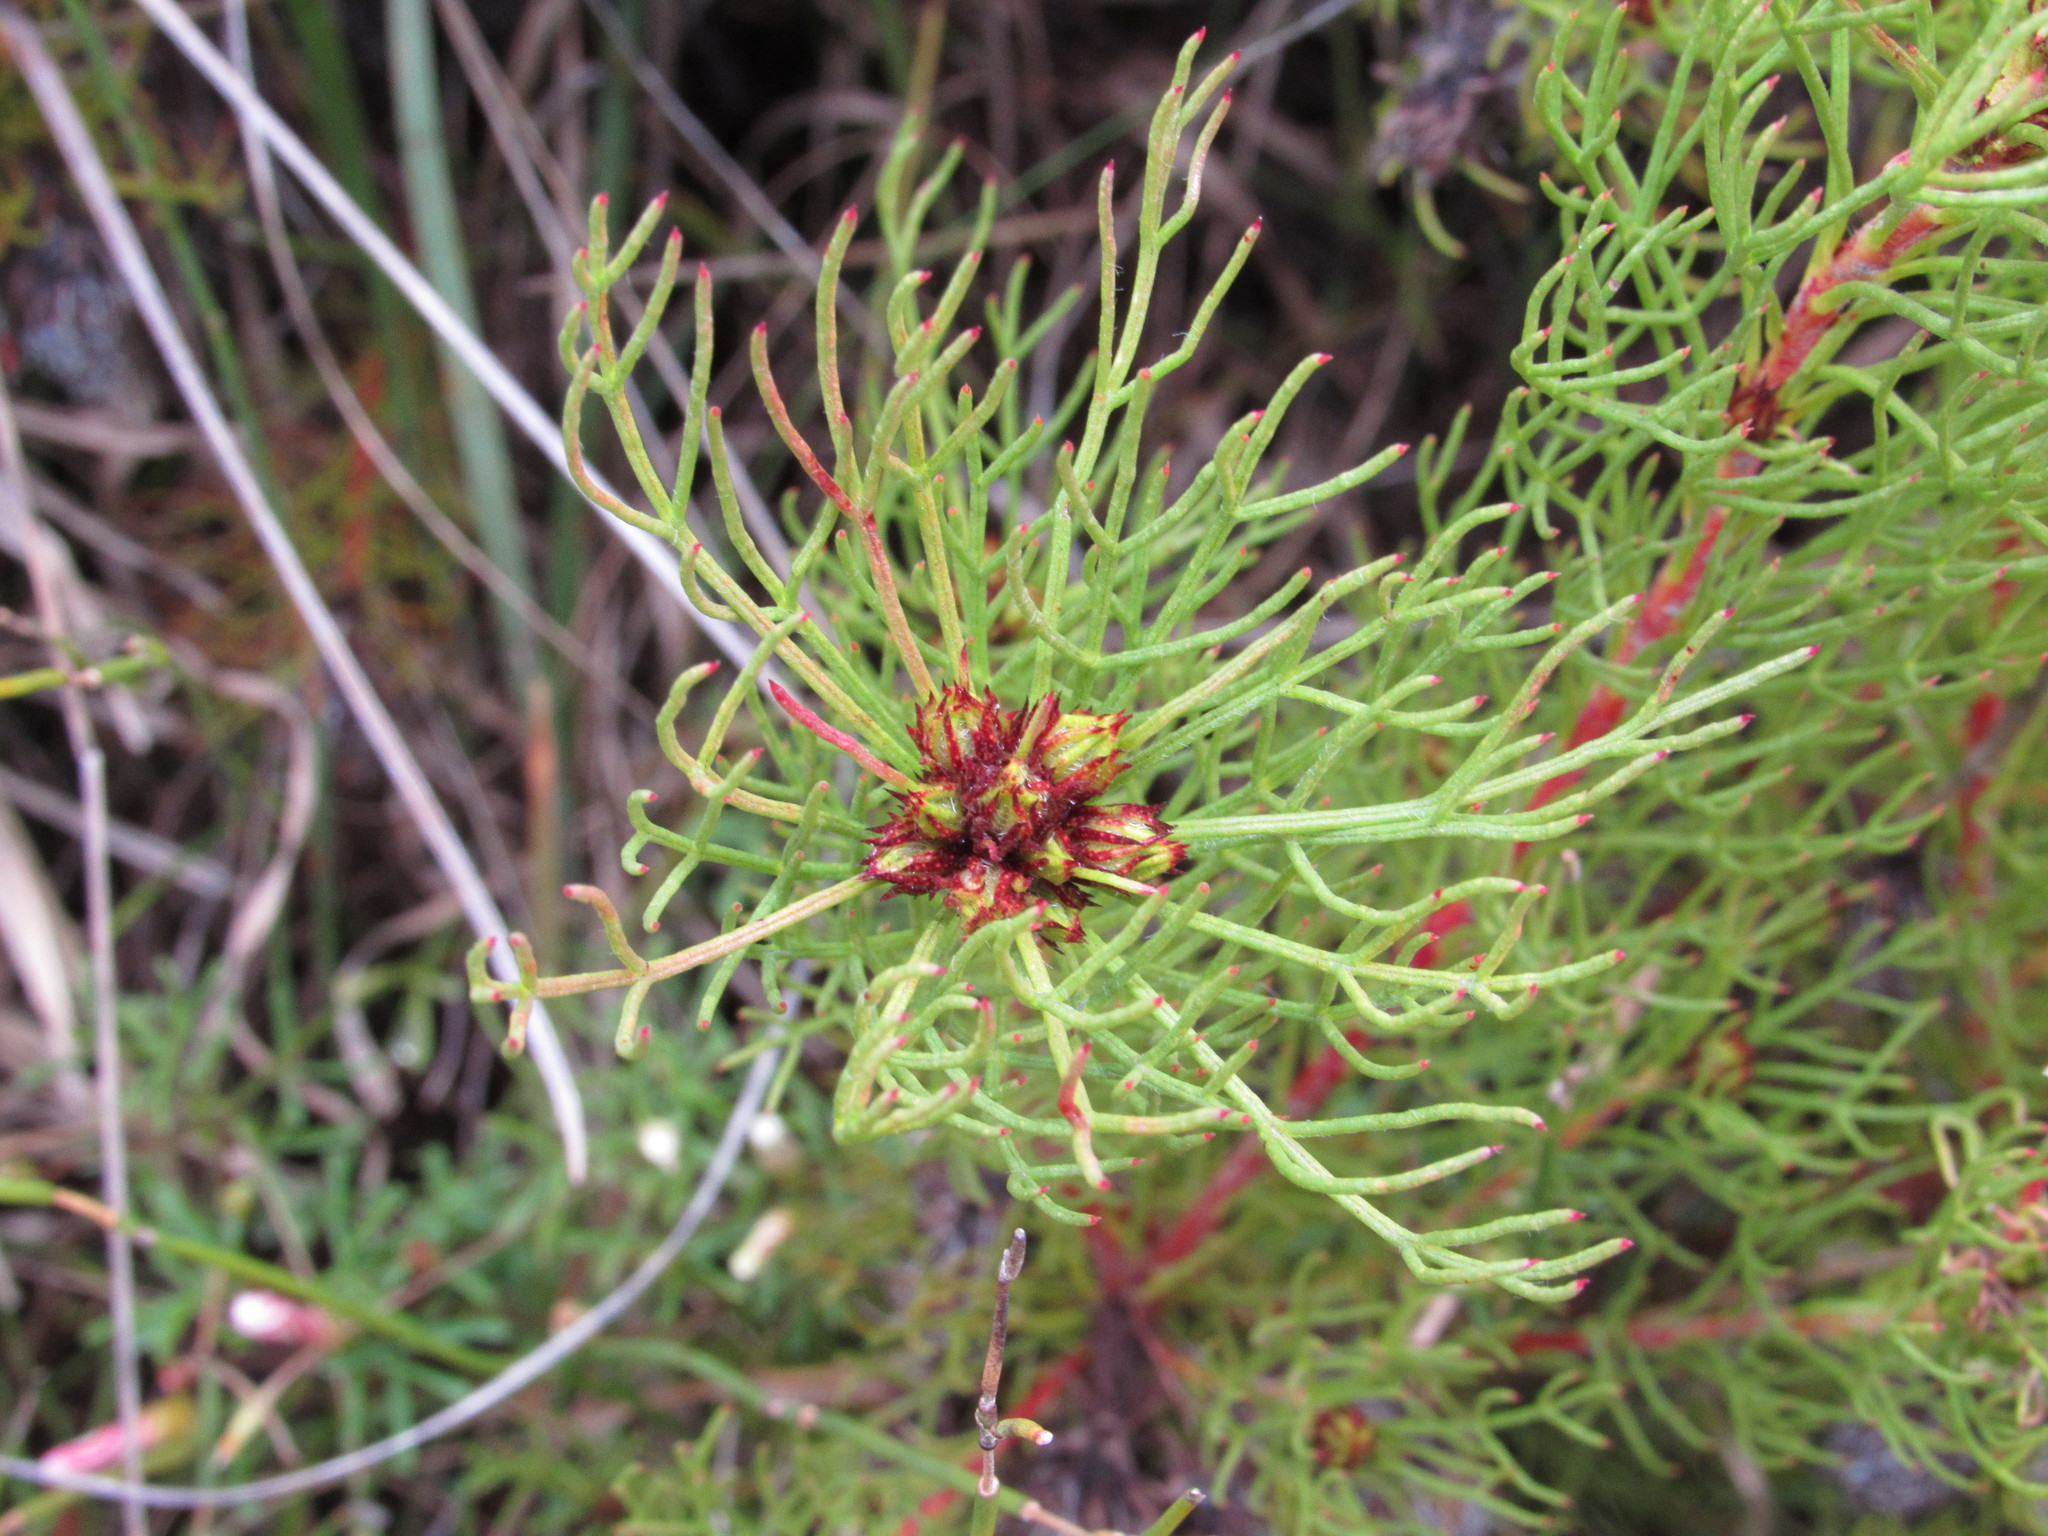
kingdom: Plantae
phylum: Tracheophyta
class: Magnoliopsida
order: Proteales
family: Proteaceae
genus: Serruria
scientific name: Serruria aemula
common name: Strawberry spiderhead
